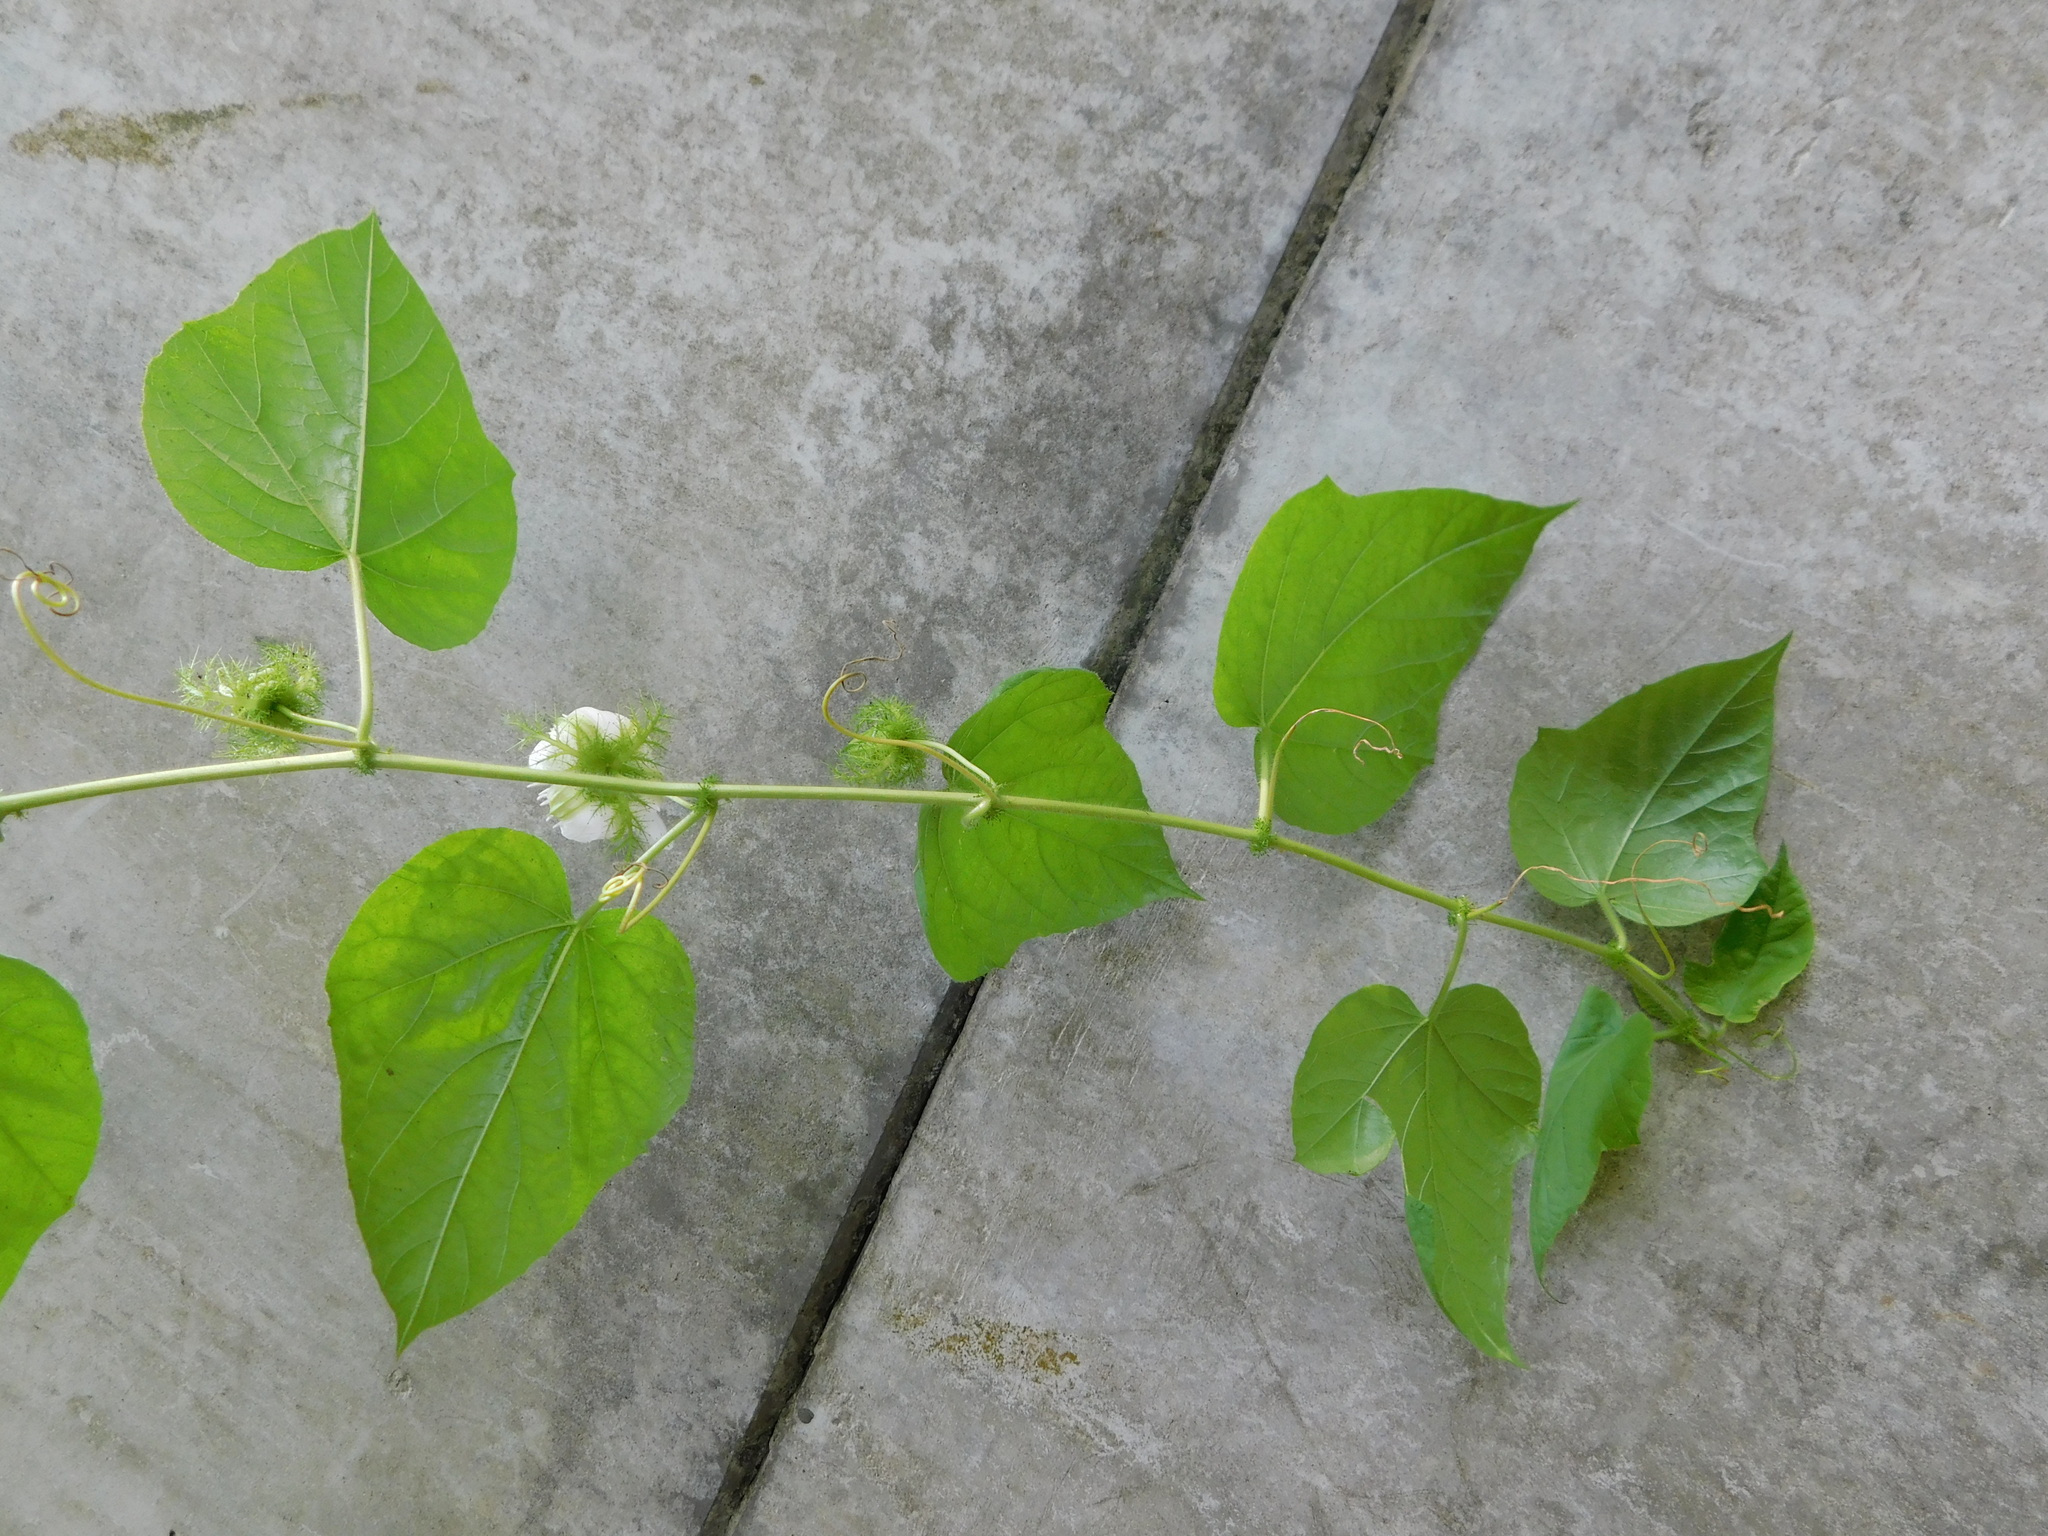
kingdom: Plantae
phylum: Tracheophyta
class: Magnoliopsida
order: Malpighiales
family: Passifloraceae
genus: Passiflora
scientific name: Passiflora vesicaria
